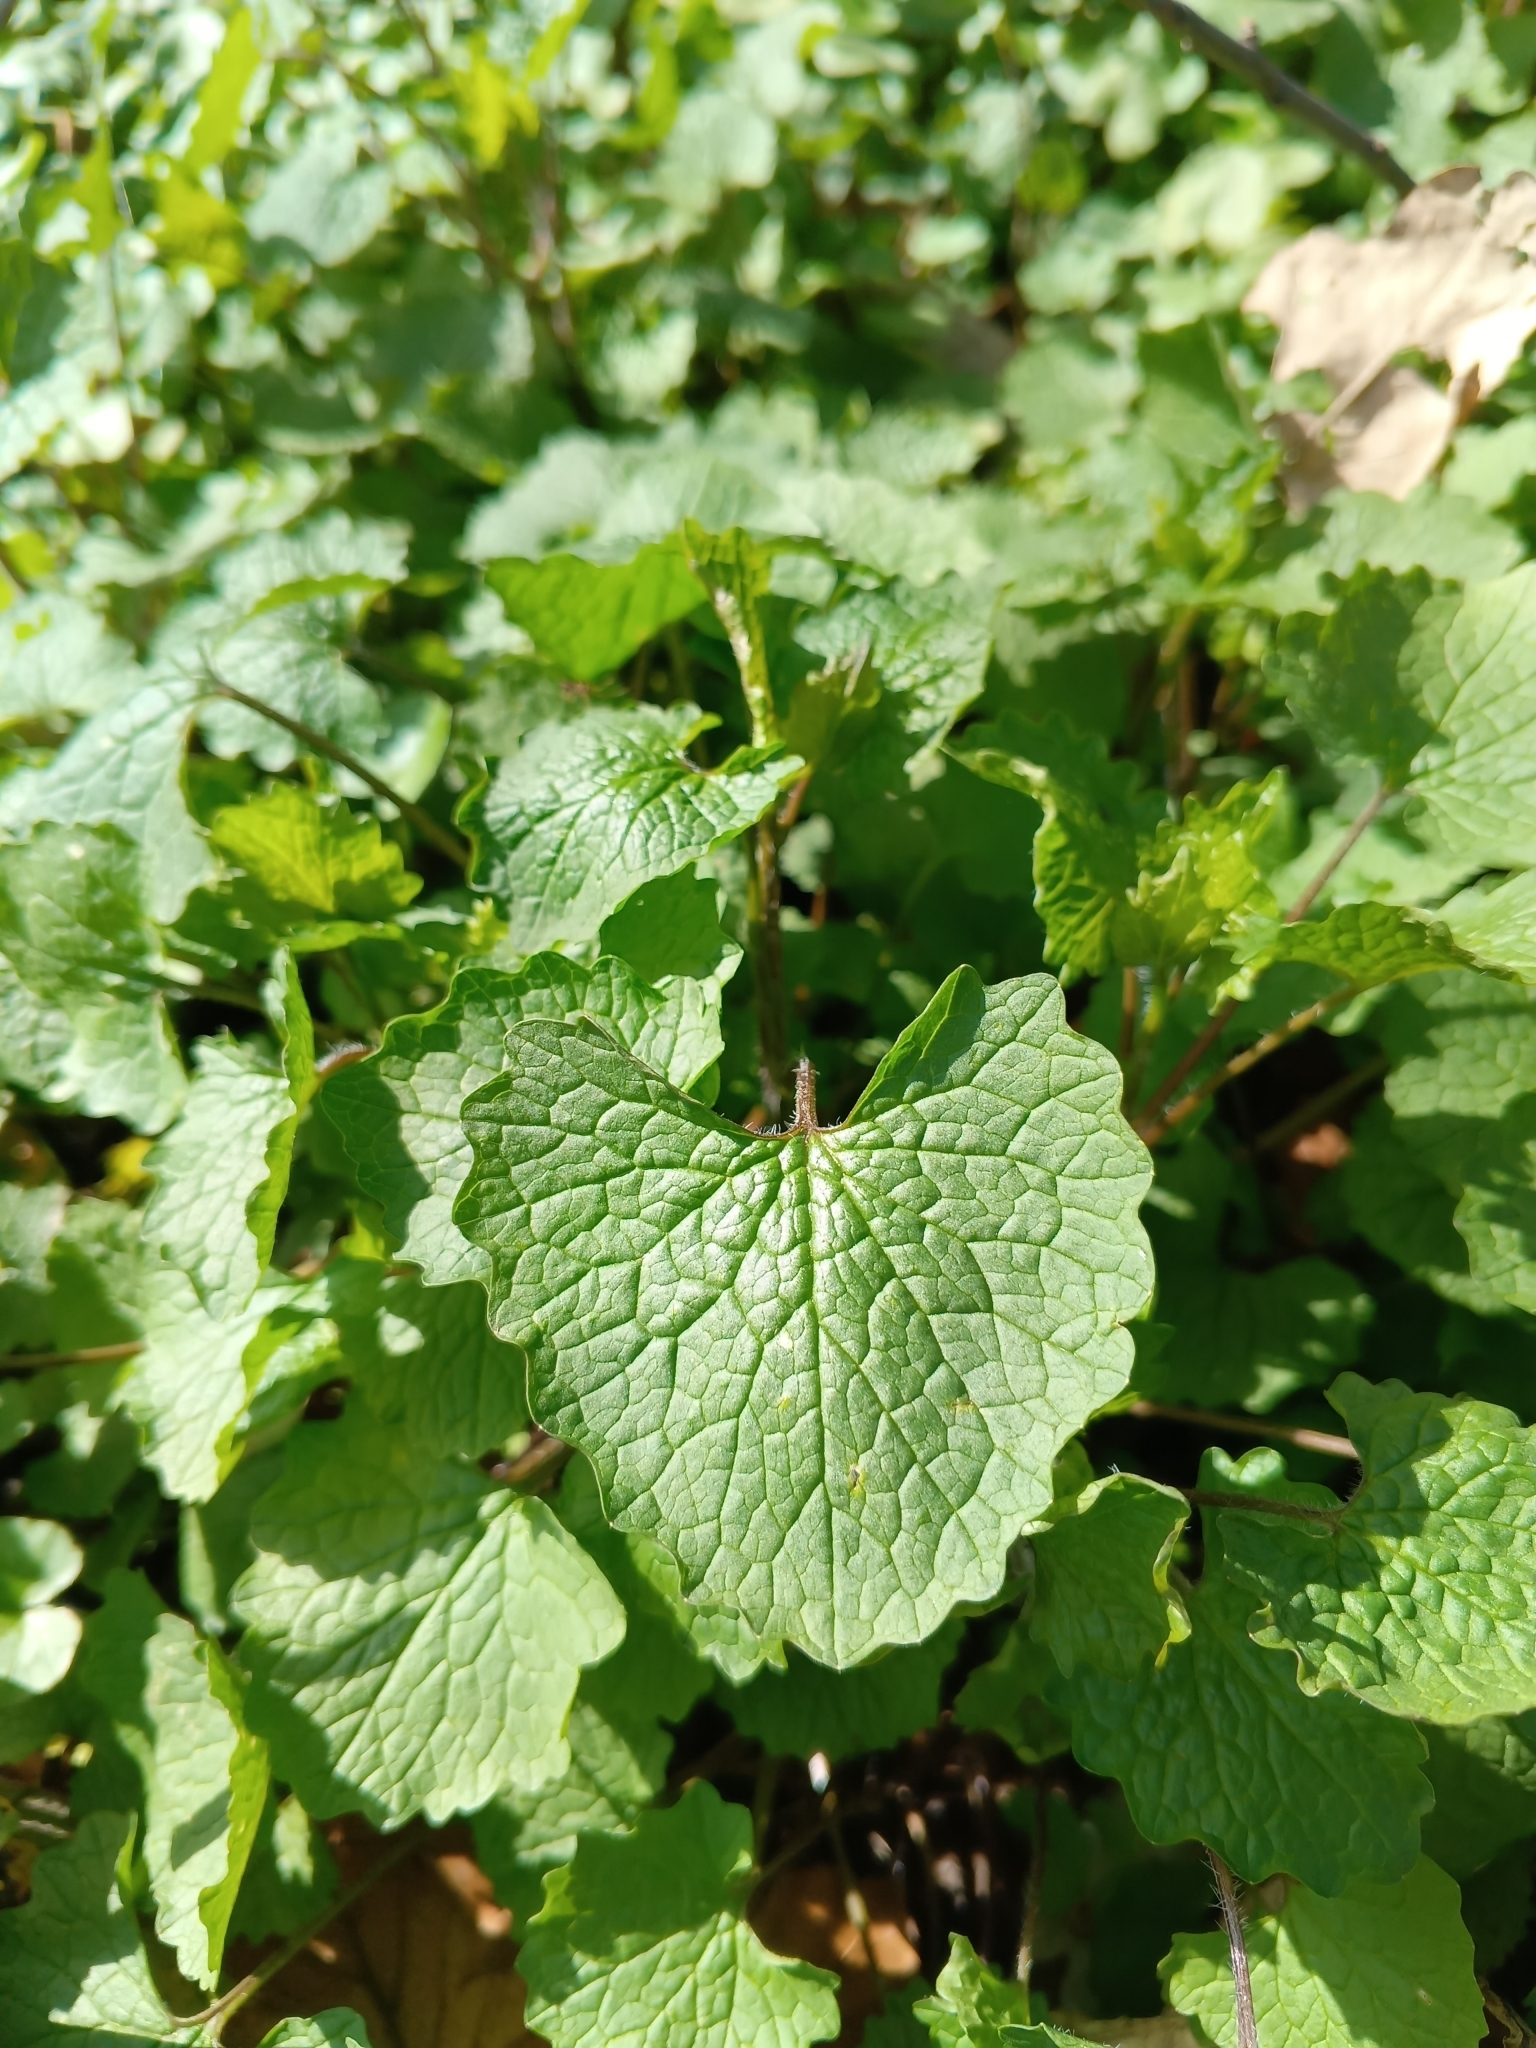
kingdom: Plantae
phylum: Tracheophyta
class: Magnoliopsida
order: Brassicales
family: Brassicaceae
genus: Alliaria
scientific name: Alliaria petiolata
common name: Garlic mustard
